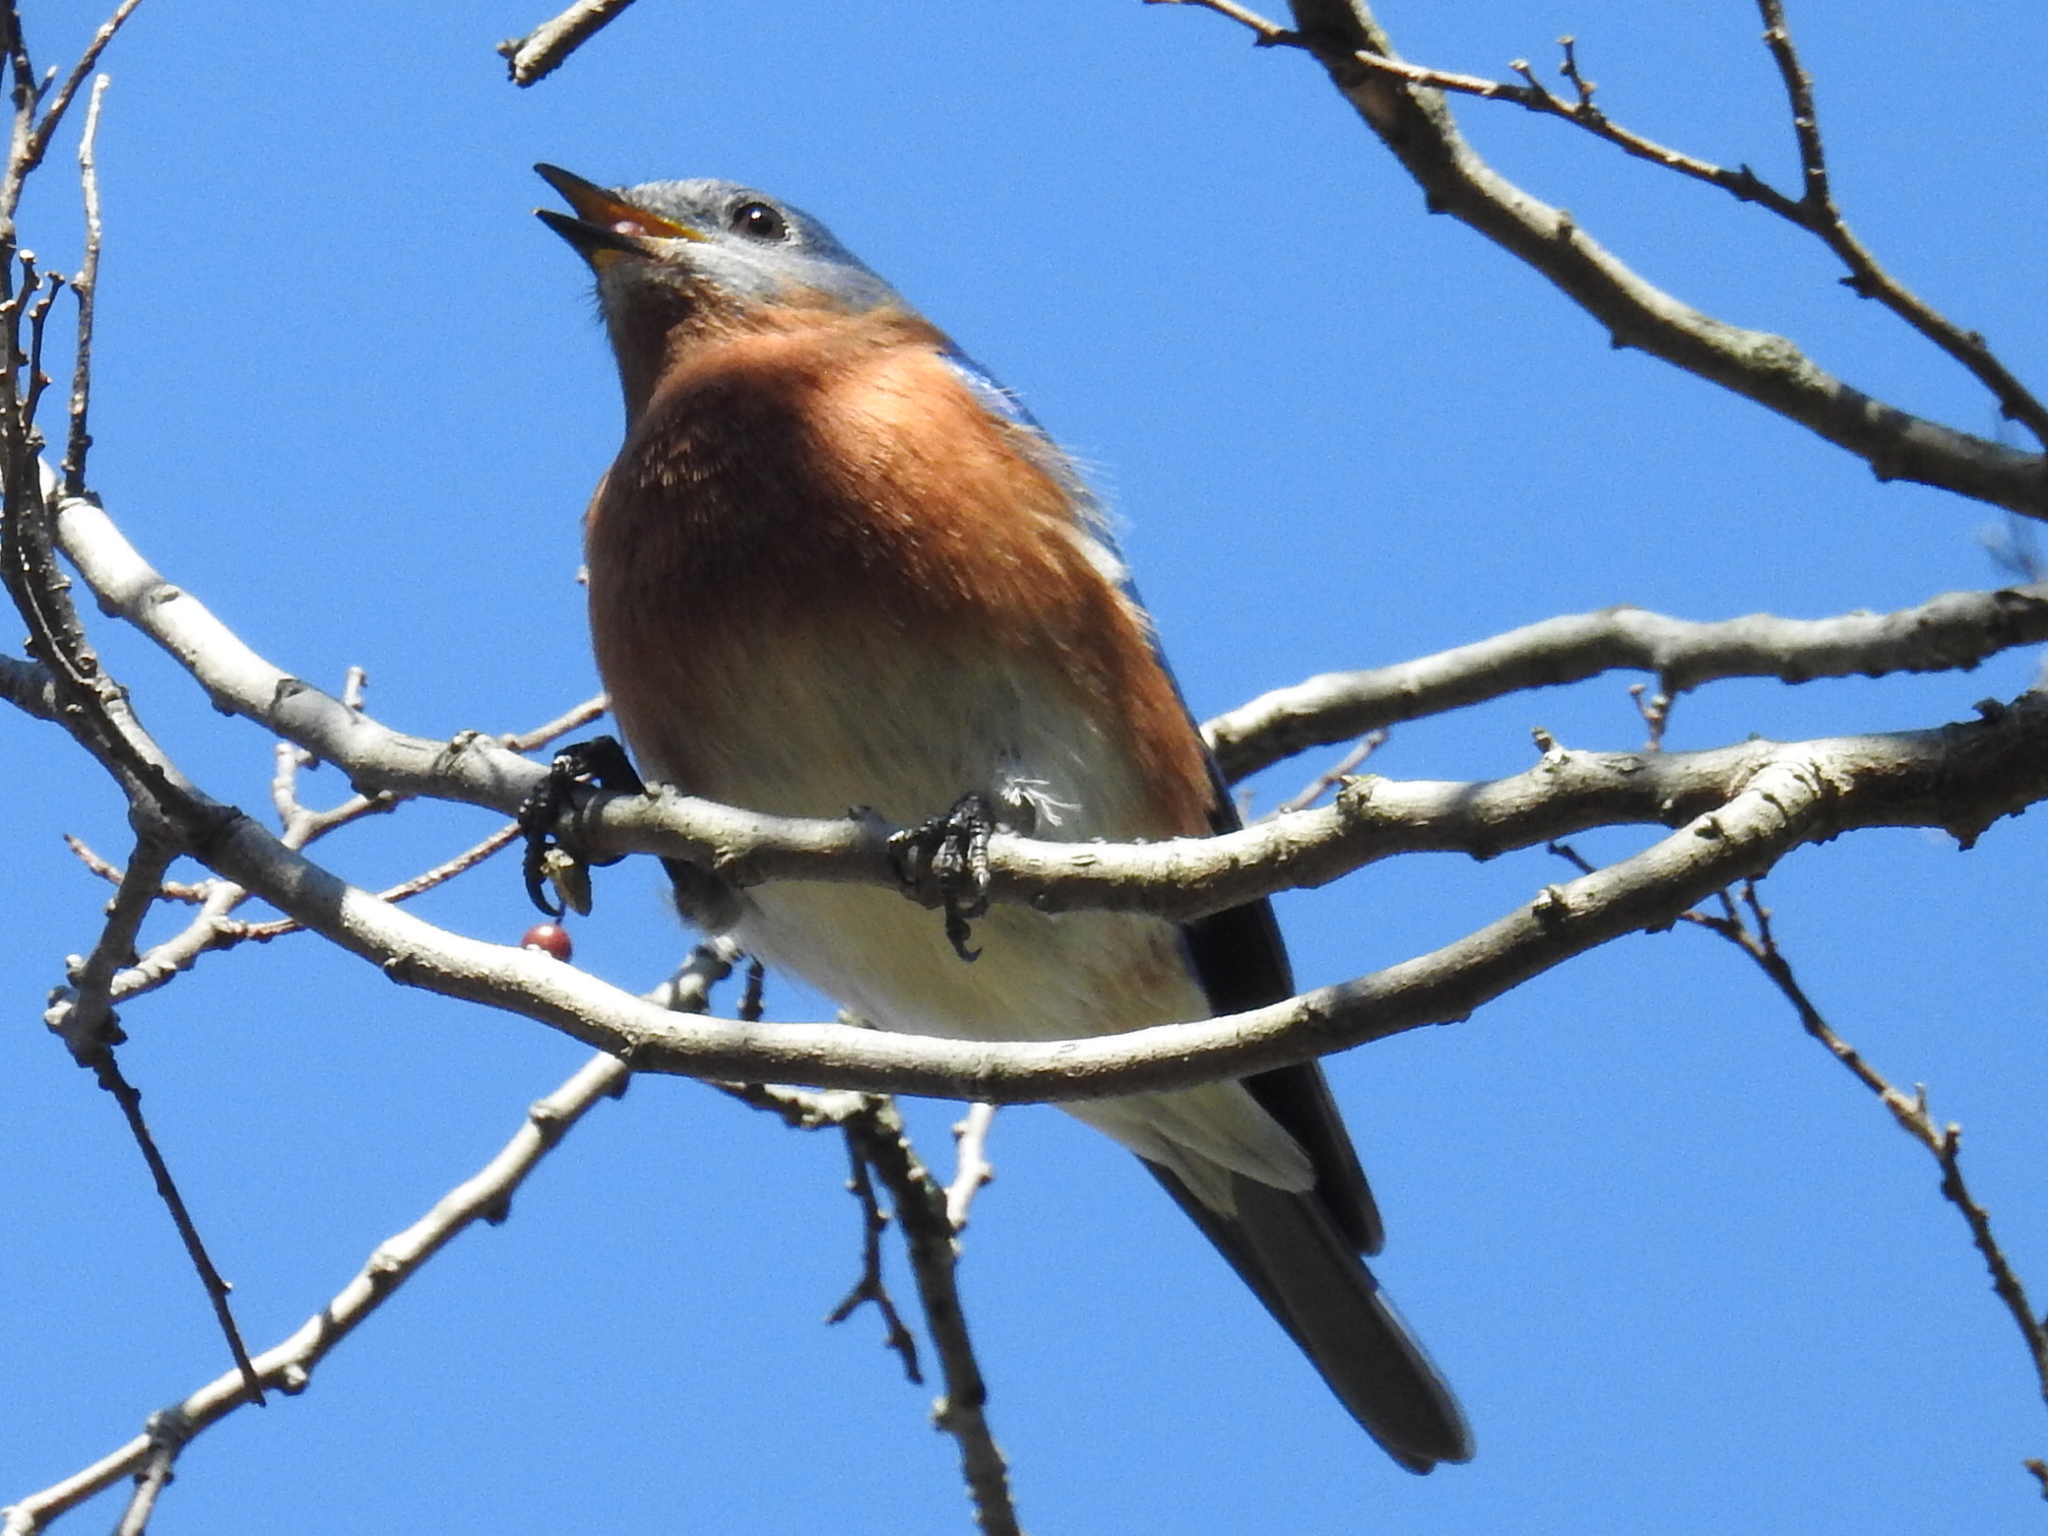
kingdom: Animalia
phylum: Chordata
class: Aves
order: Passeriformes
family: Turdidae
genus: Sialia
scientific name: Sialia sialis
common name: Eastern bluebird
